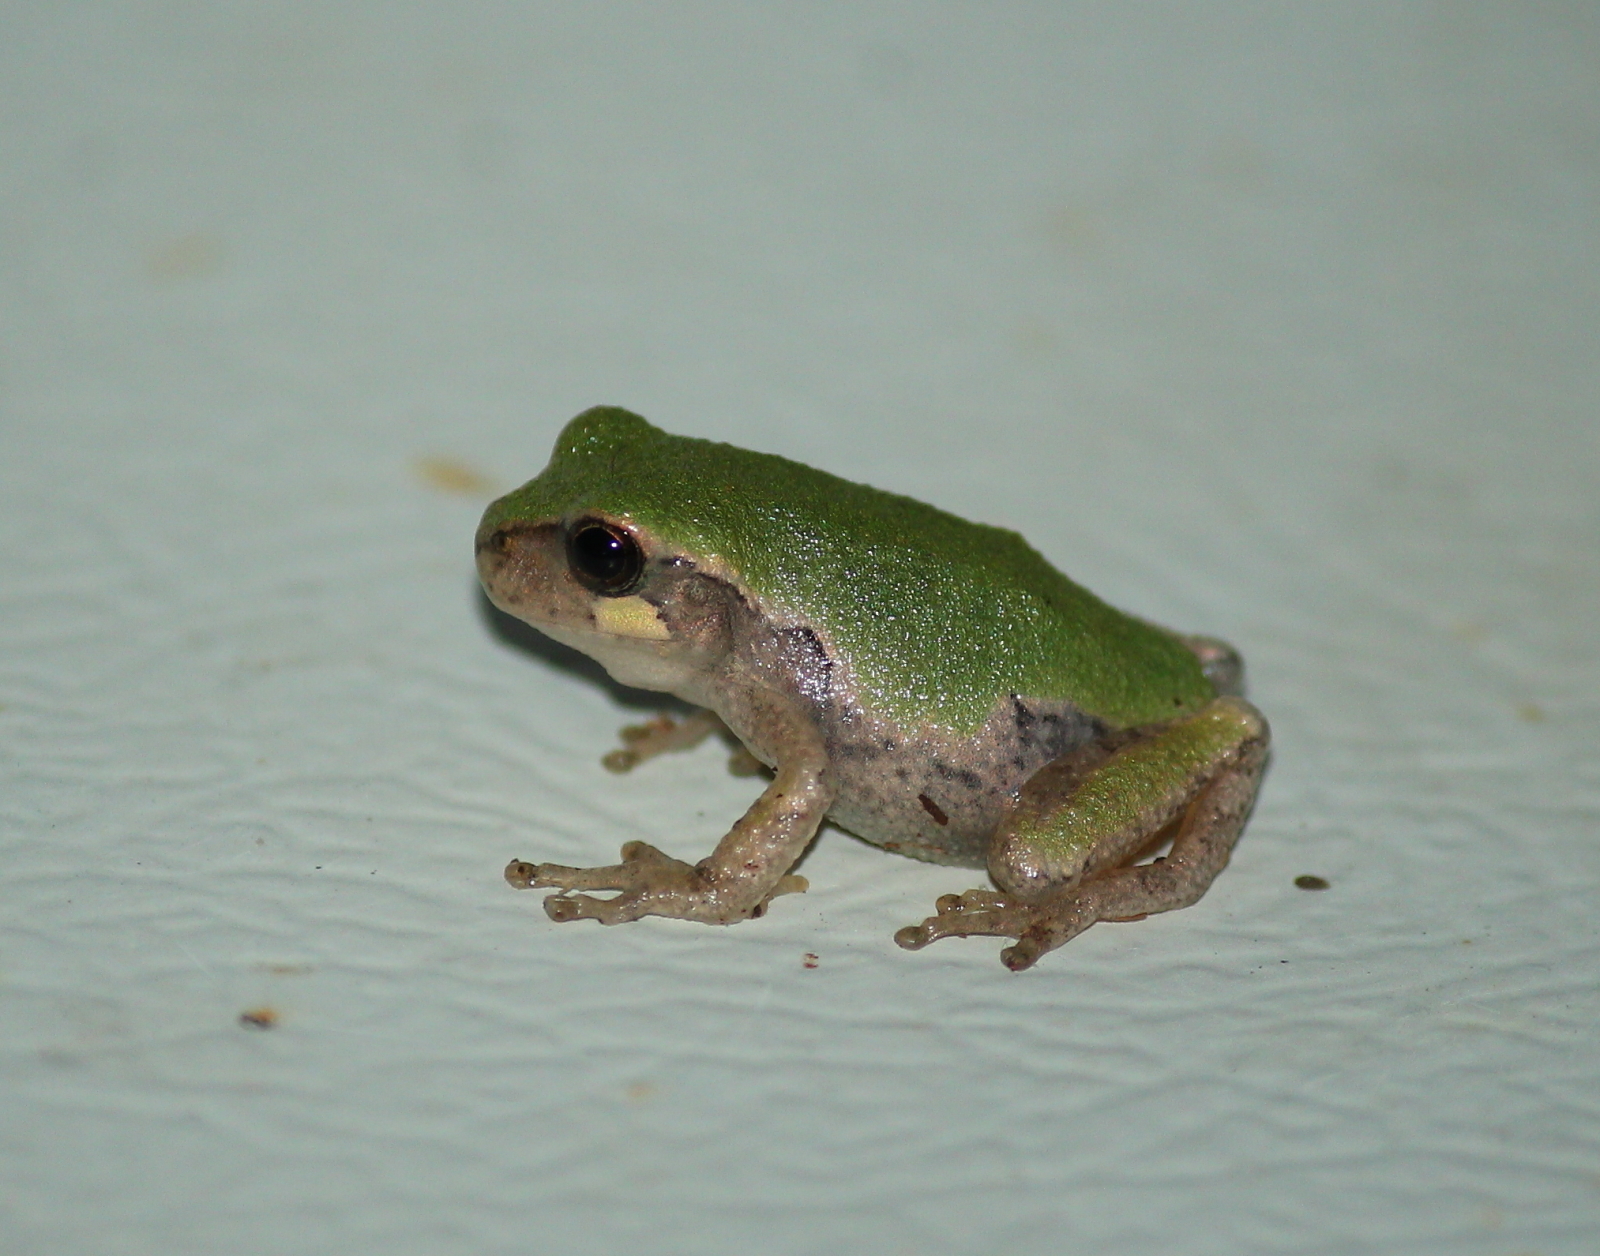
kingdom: Animalia
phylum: Chordata
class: Amphibia
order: Anura
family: Hylidae
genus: Hyla
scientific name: Hyla
